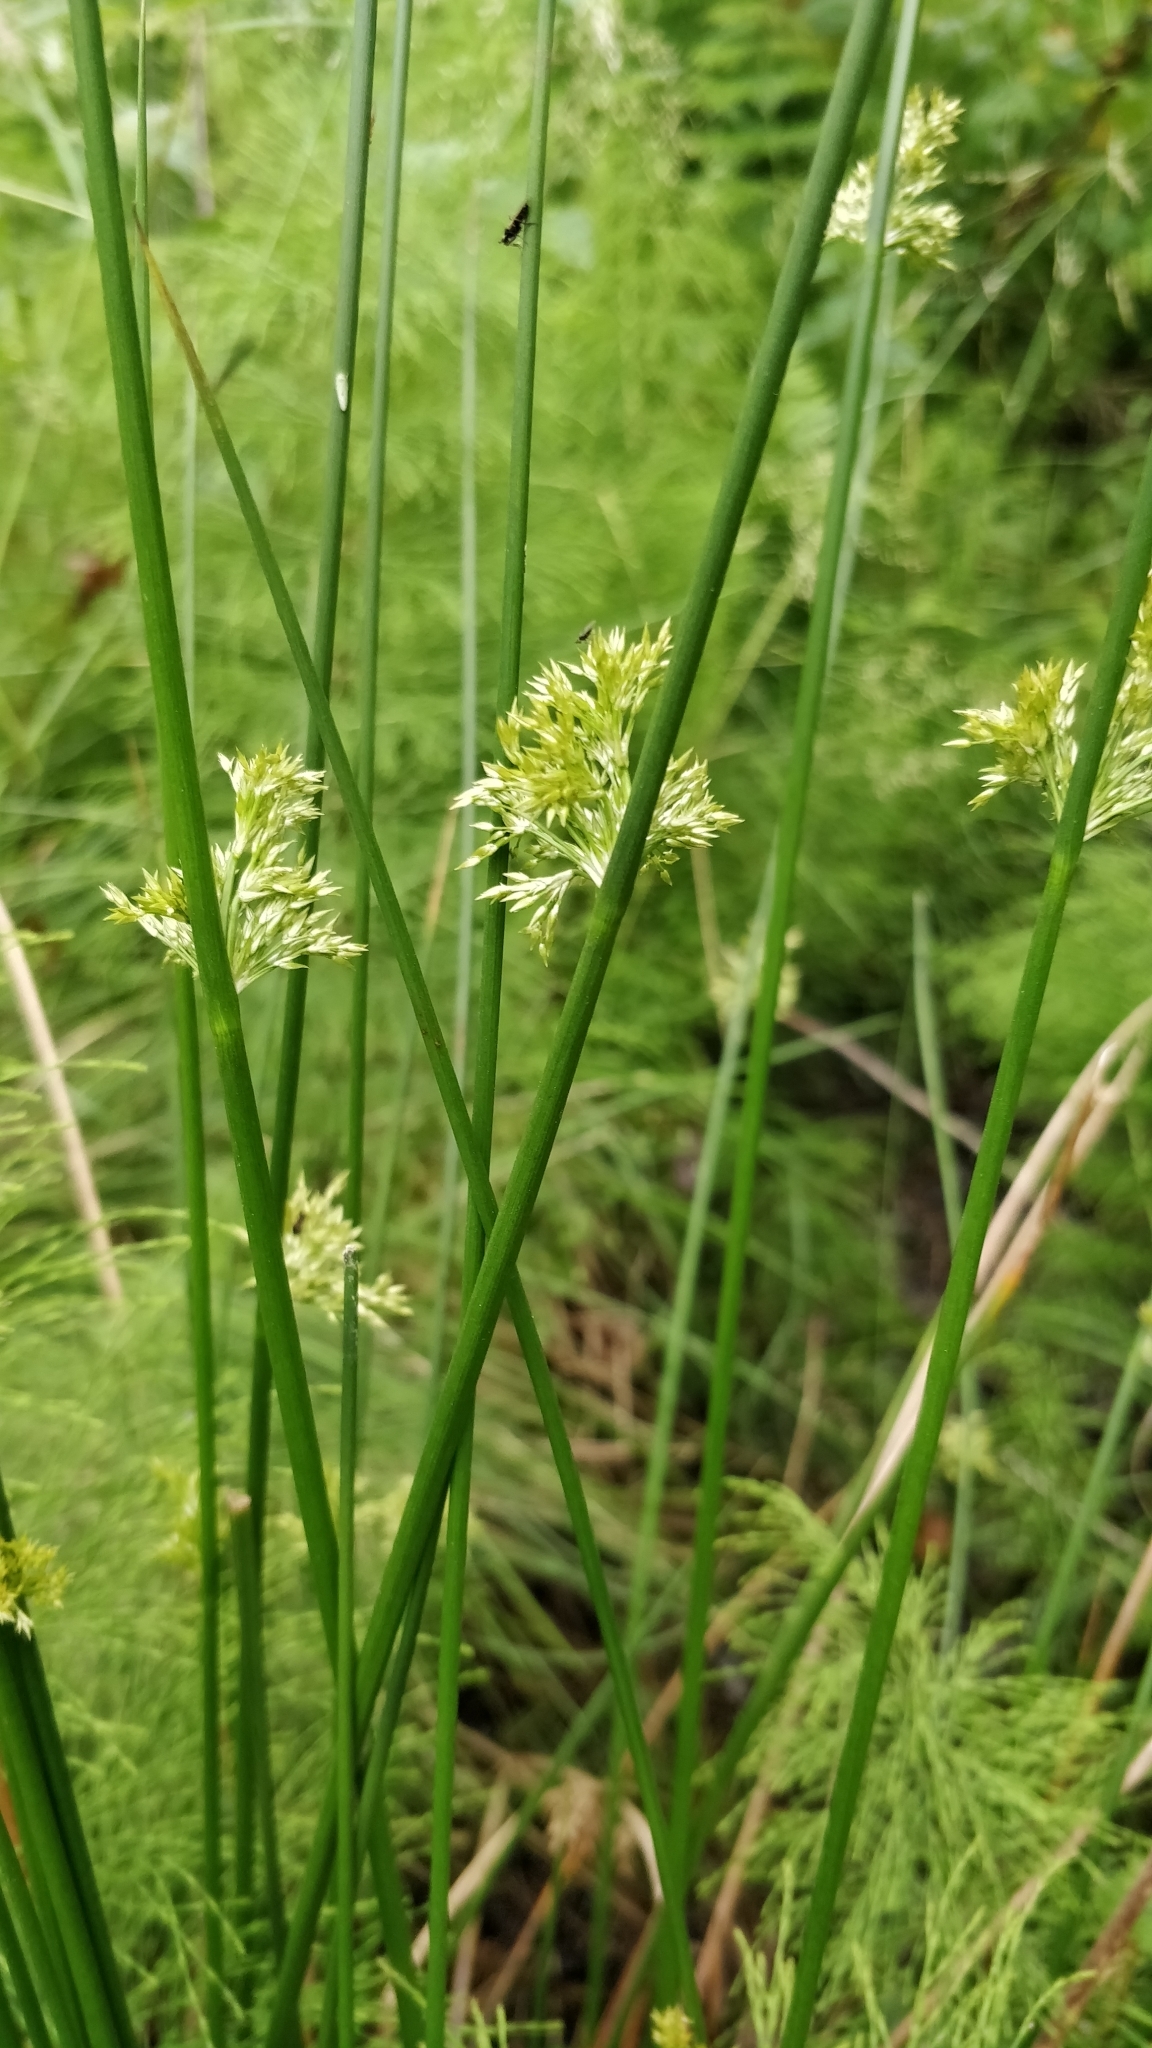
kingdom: Plantae
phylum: Tracheophyta
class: Liliopsida
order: Poales
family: Juncaceae
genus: Juncus
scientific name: Juncus effusus
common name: Soft rush
